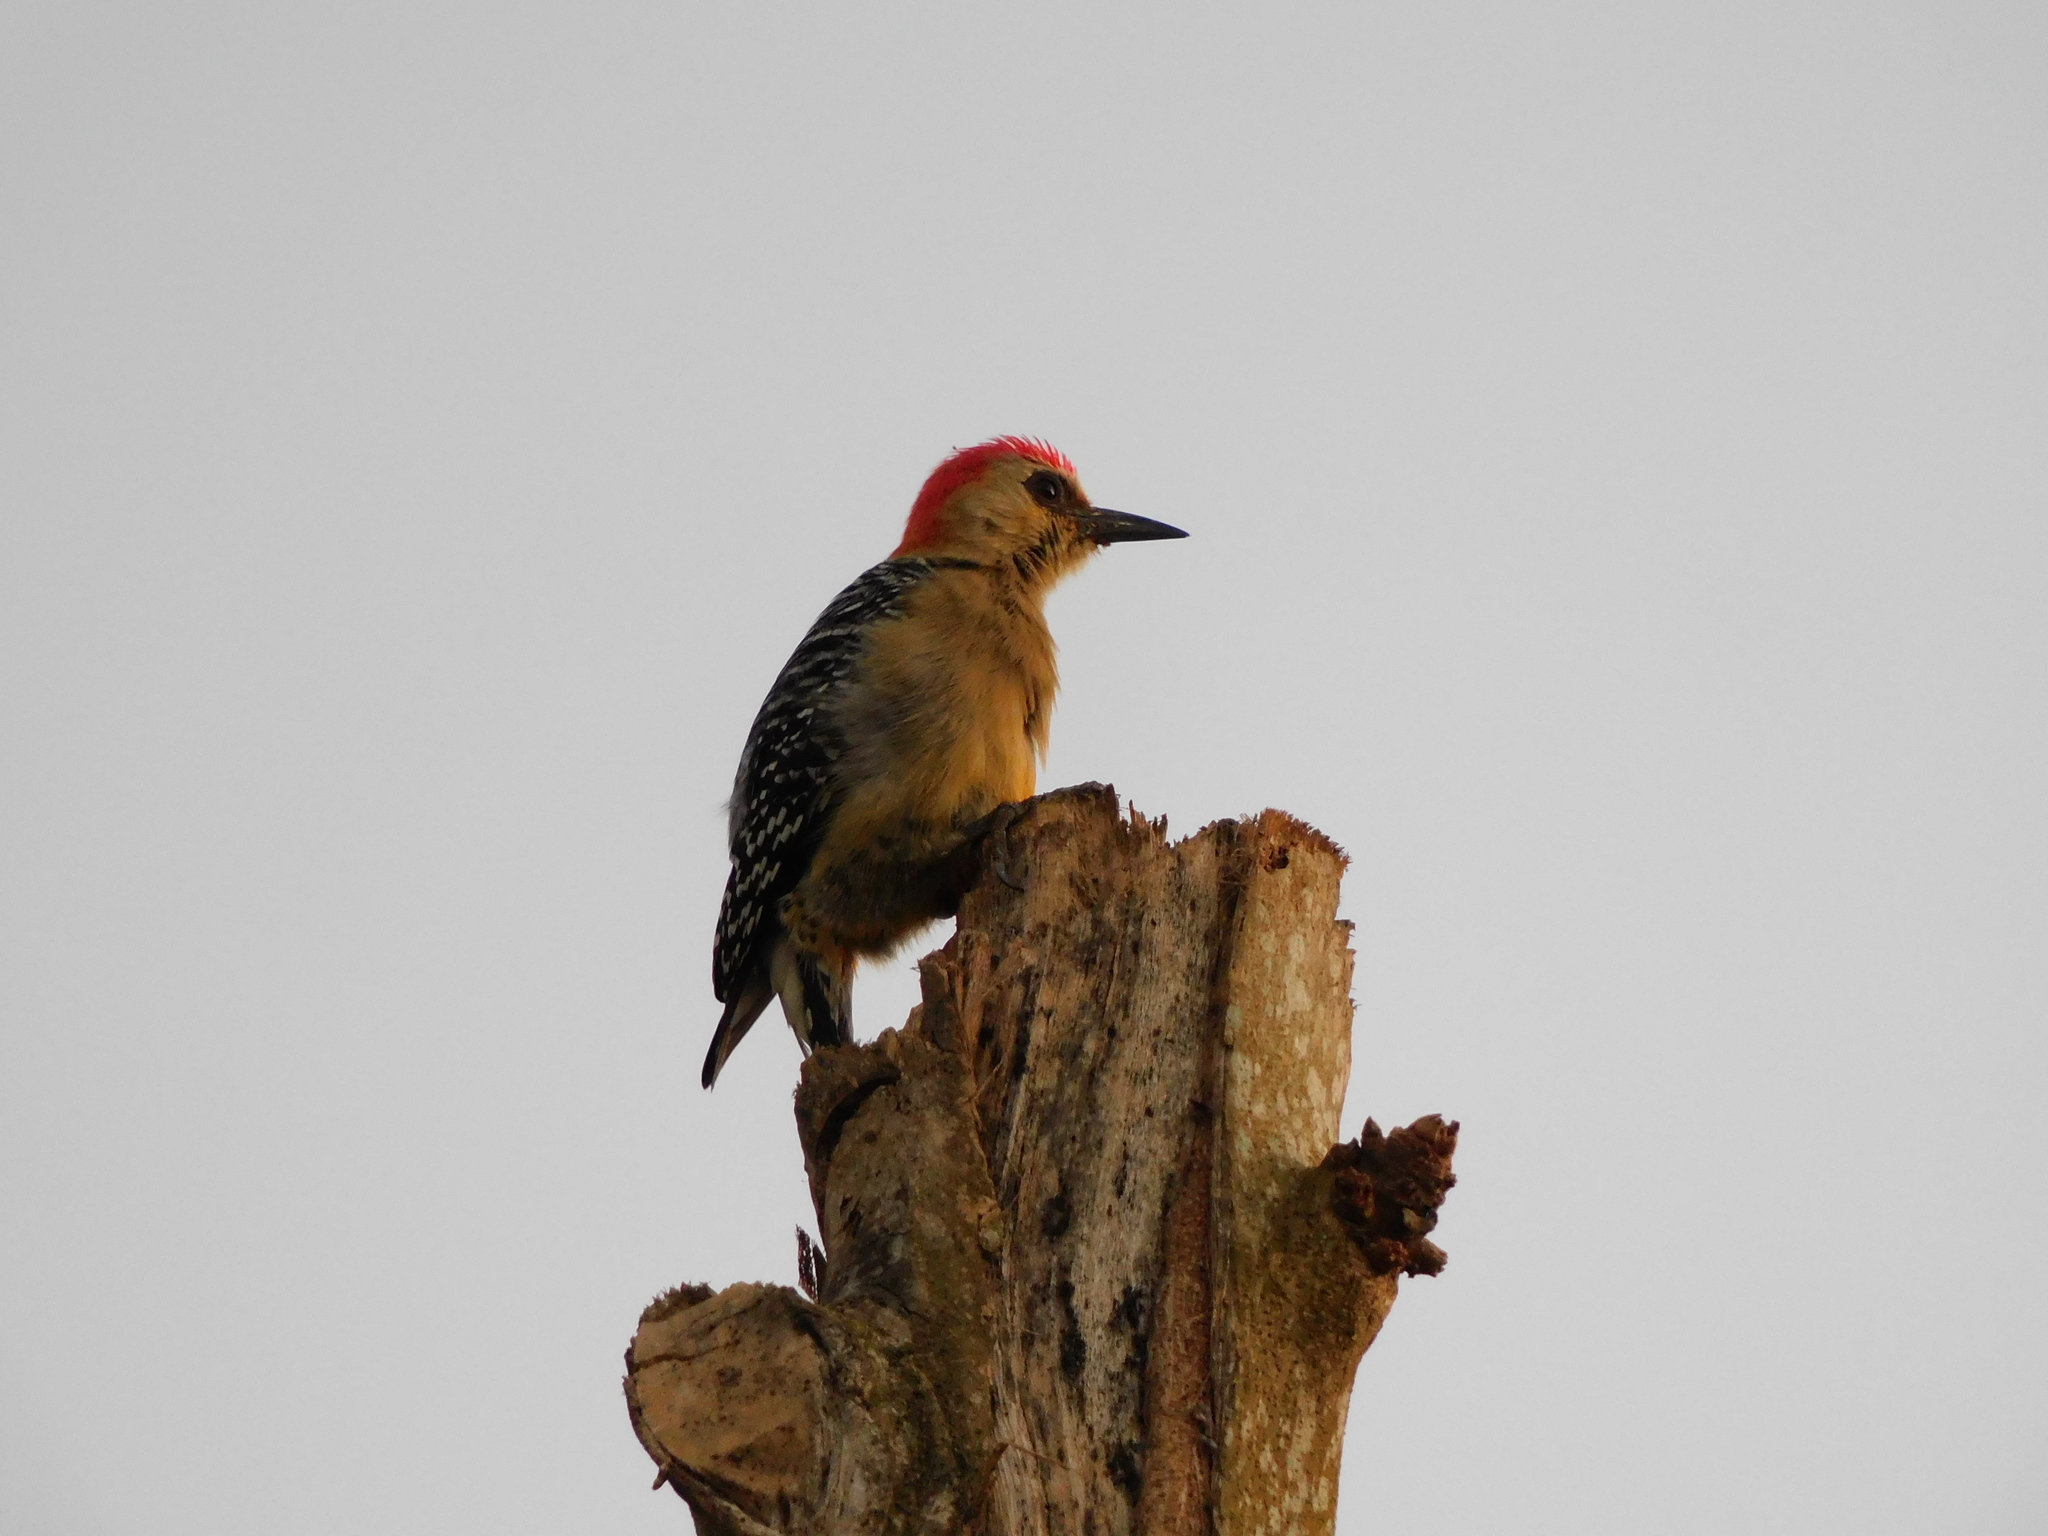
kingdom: Animalia
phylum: Chordata
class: Aves
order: Piciformes
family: Picidae
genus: Melanerpes
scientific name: Melanerpes rubricapillus
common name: Red-crowned woodpecker
